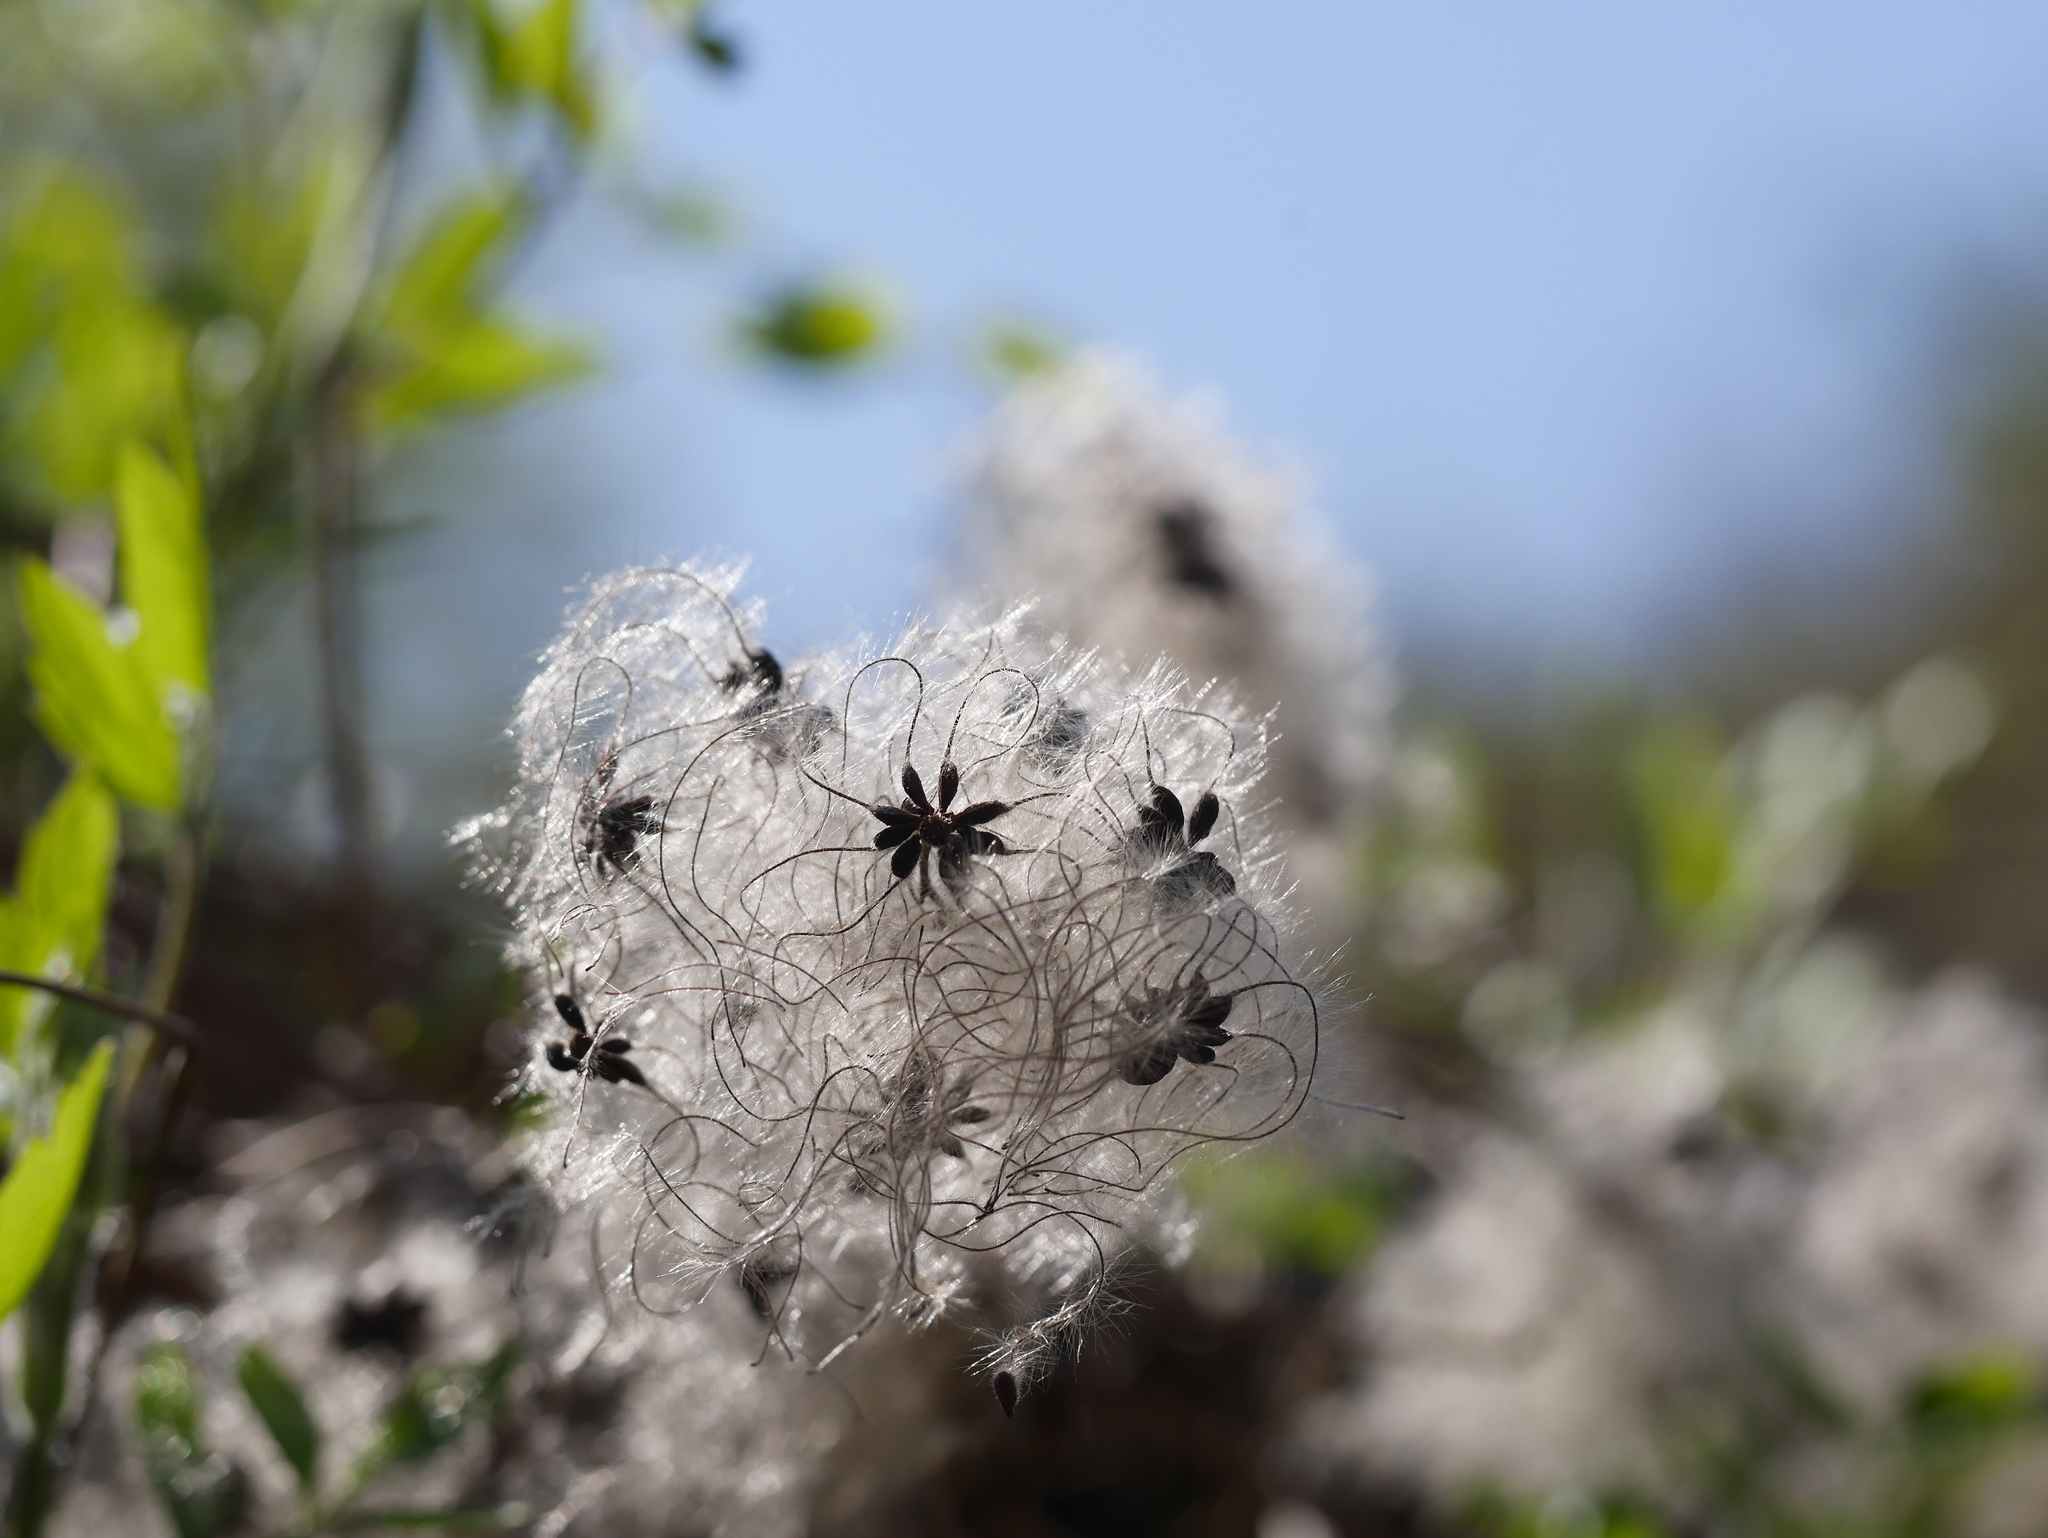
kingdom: Plantae
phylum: Tracheophyta
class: Magnoliopsida
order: Ranunculales
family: Ranunculaceae
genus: Clematis
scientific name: Clematis vitalba
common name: Evergreen clematis
